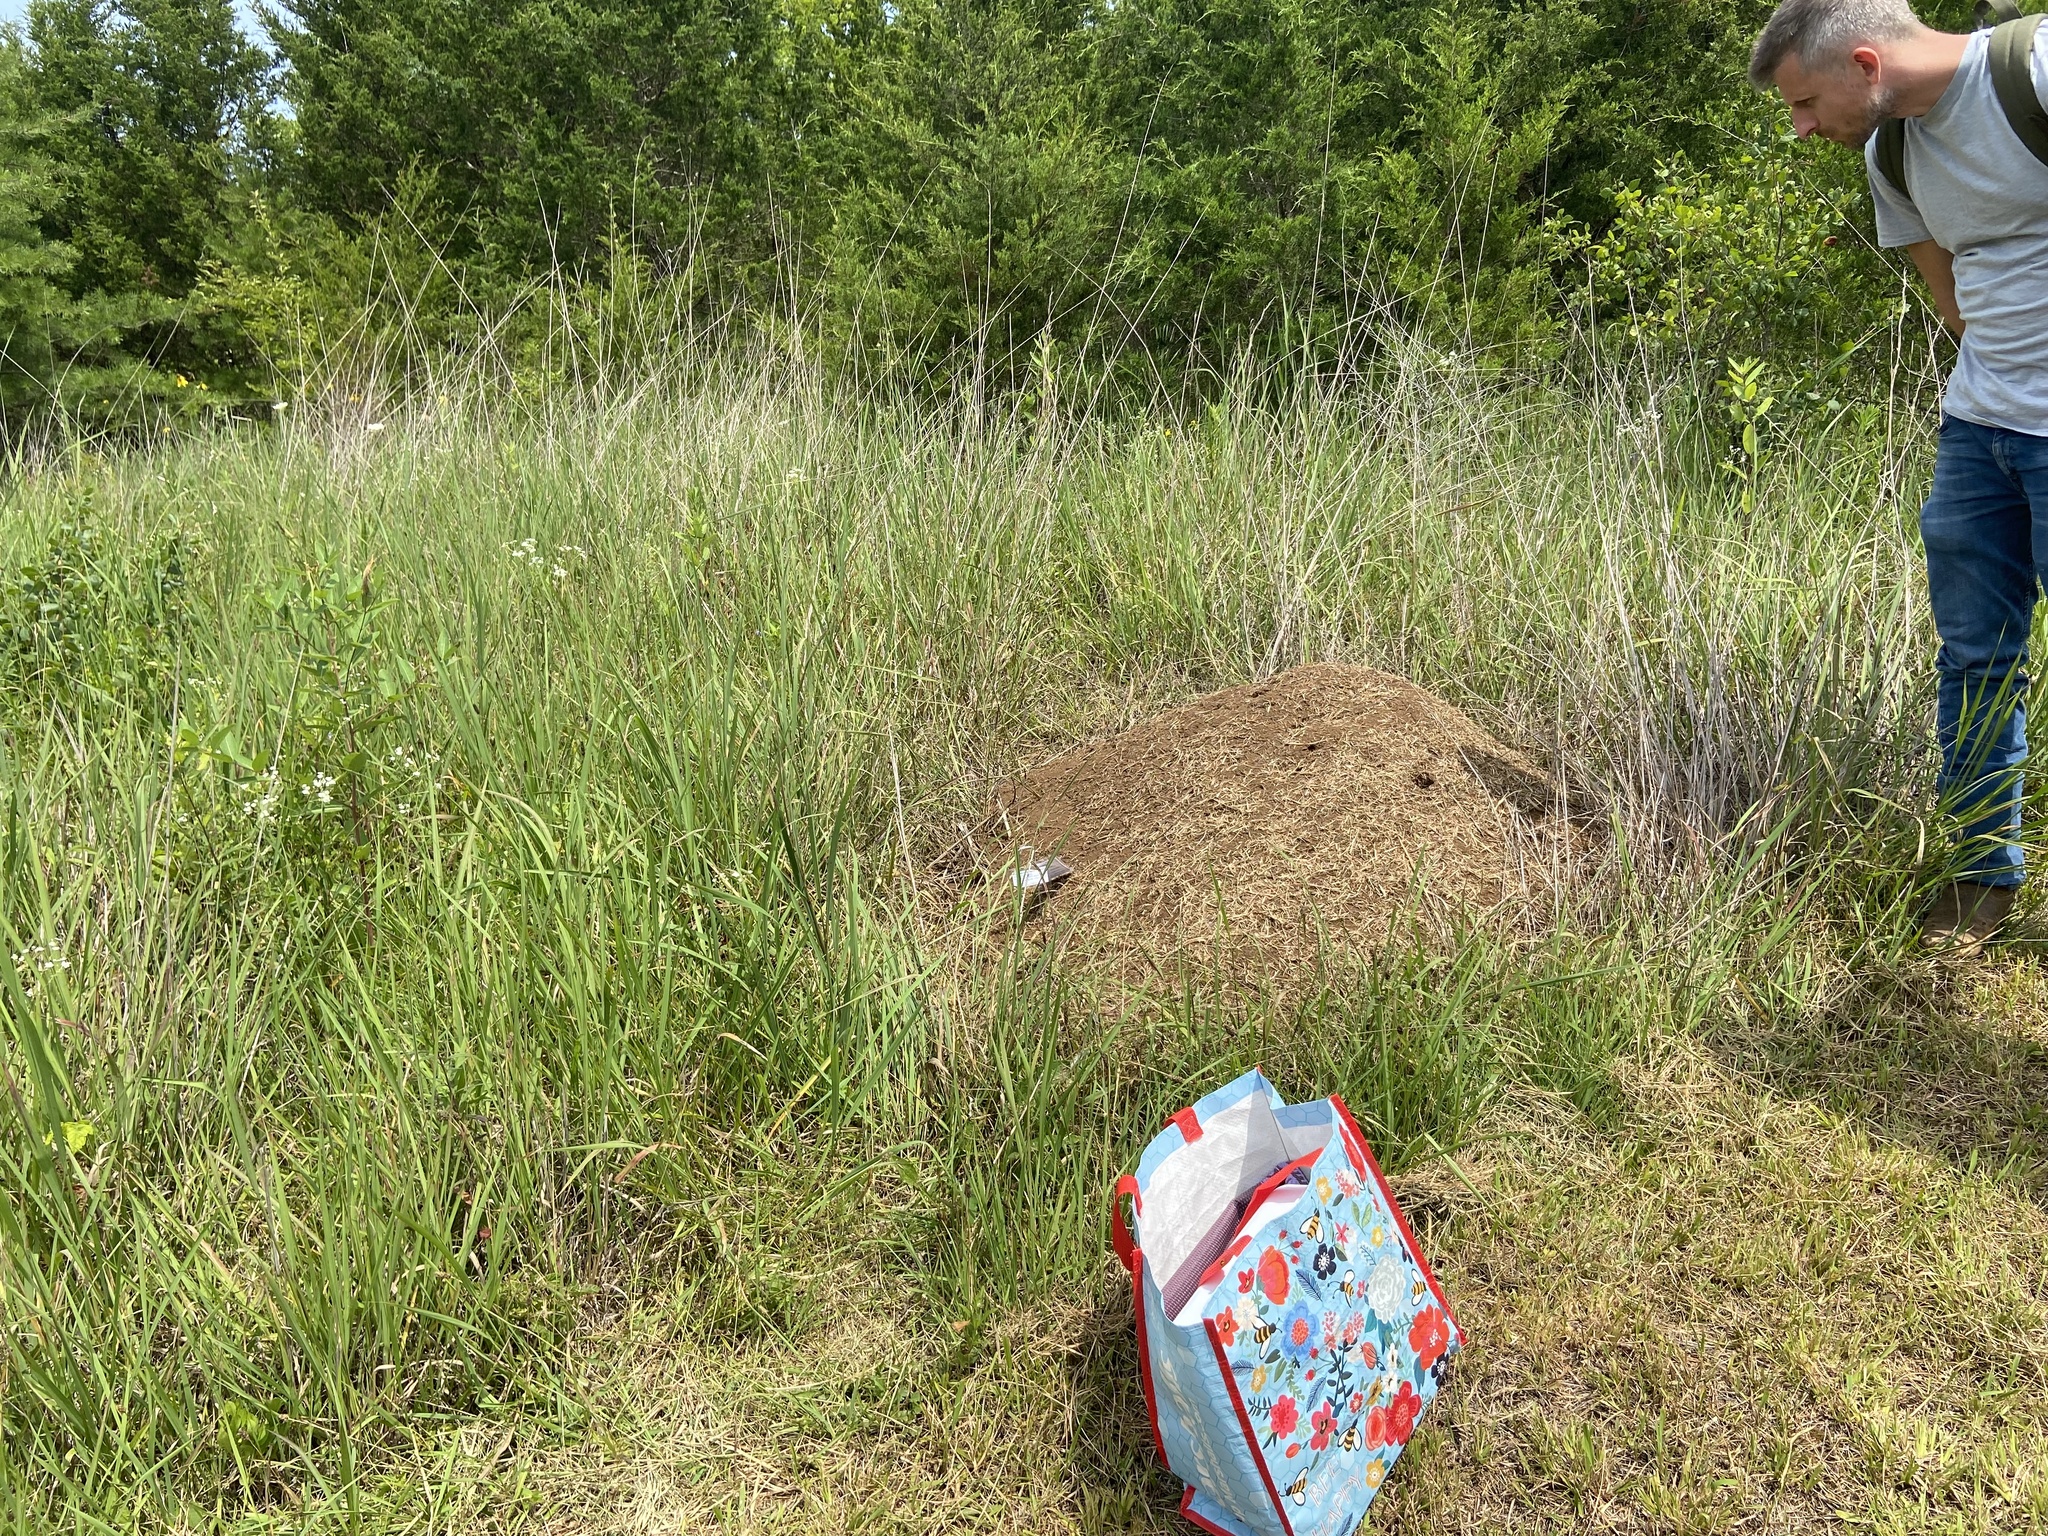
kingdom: Animalia
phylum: Arthropoda
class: Insecta
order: Hymenoptera
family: Formicidae
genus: Formica
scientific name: Formica exsectoides
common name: Allegheny mound ant
